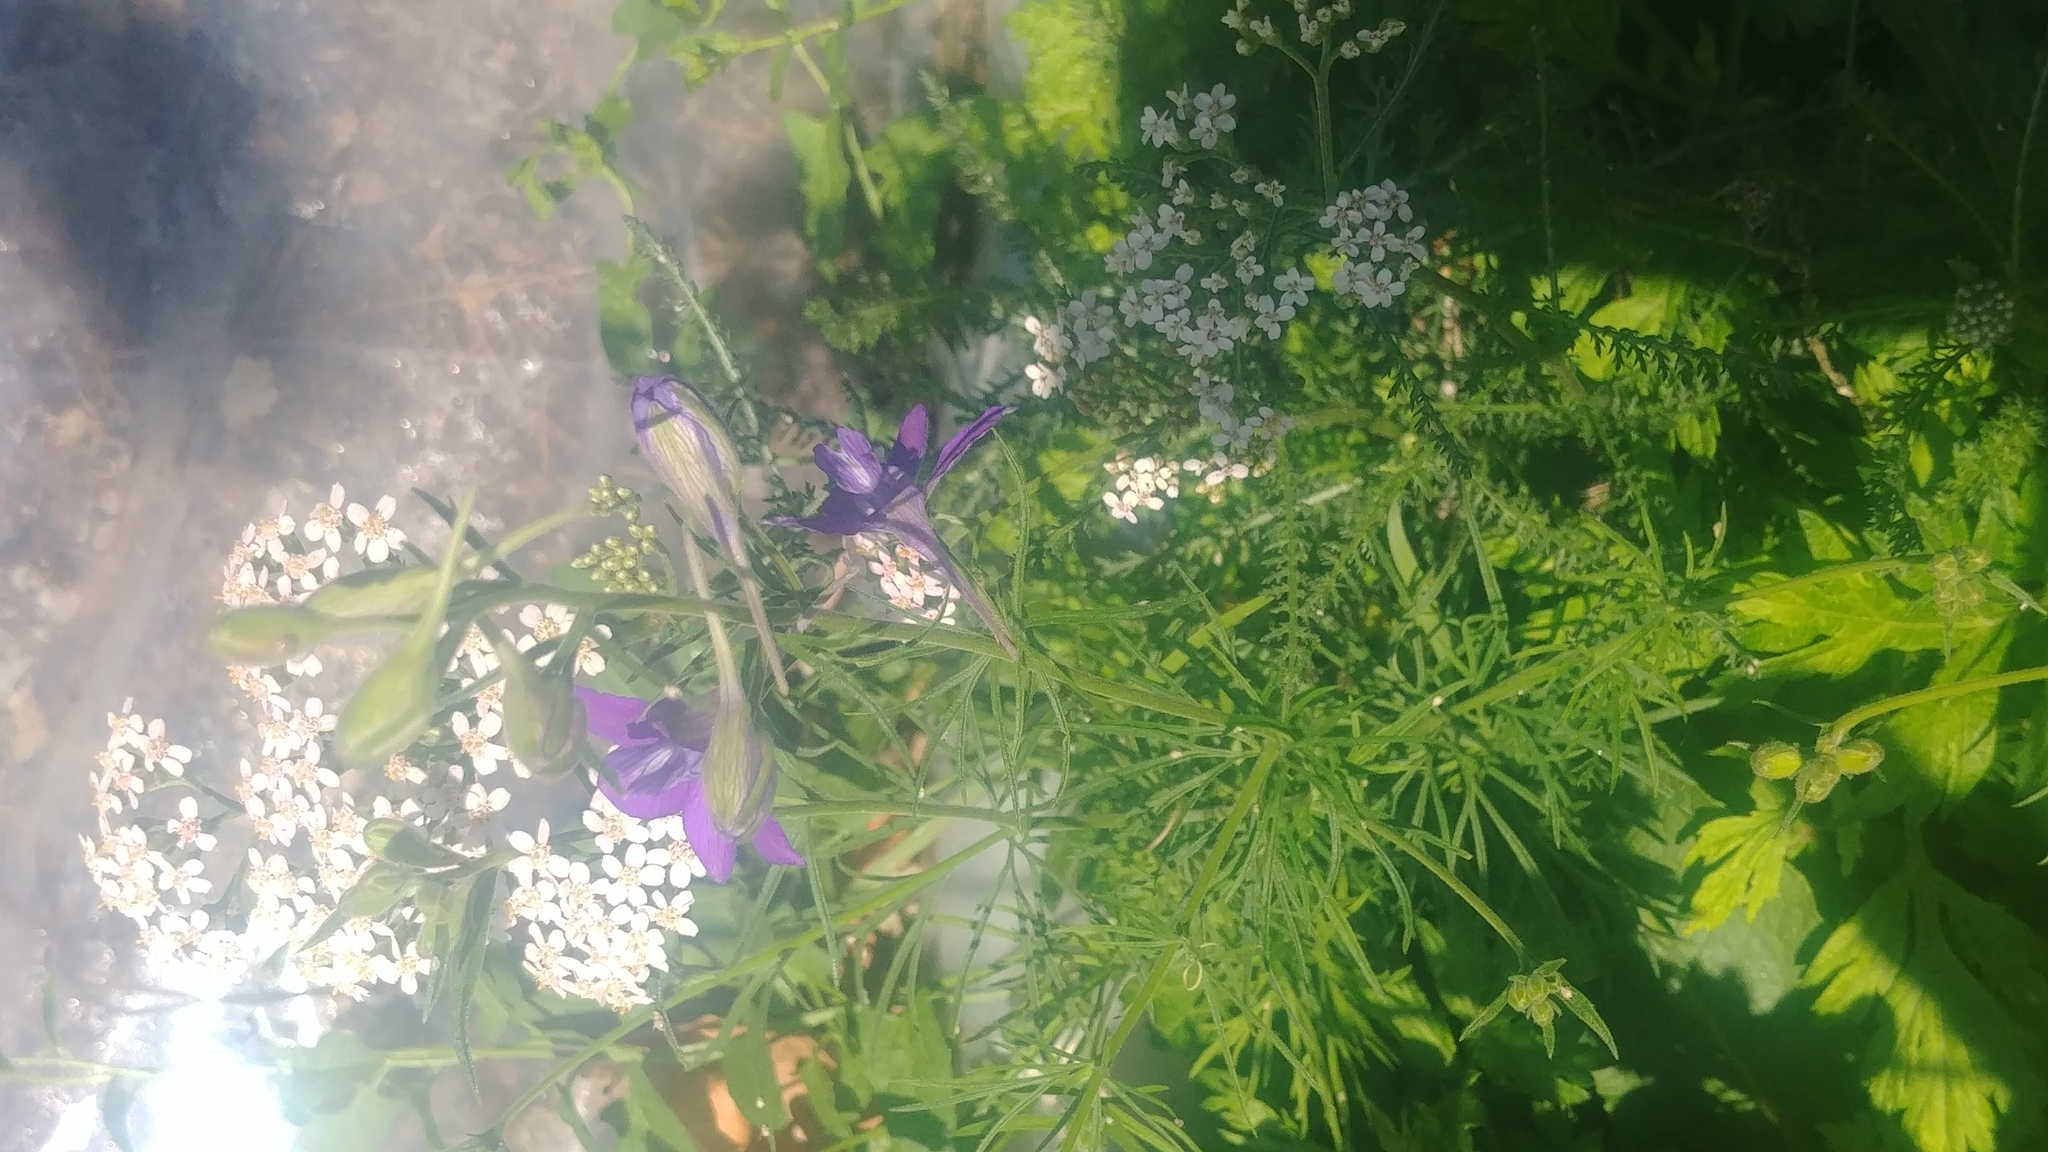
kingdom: Plantae
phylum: Tracheophyta
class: Magnoliopsida
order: Ranunculales
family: Ranunculaceae
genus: Delphinium
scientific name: Delphinium ajacis
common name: Doubtful knight's-spur
